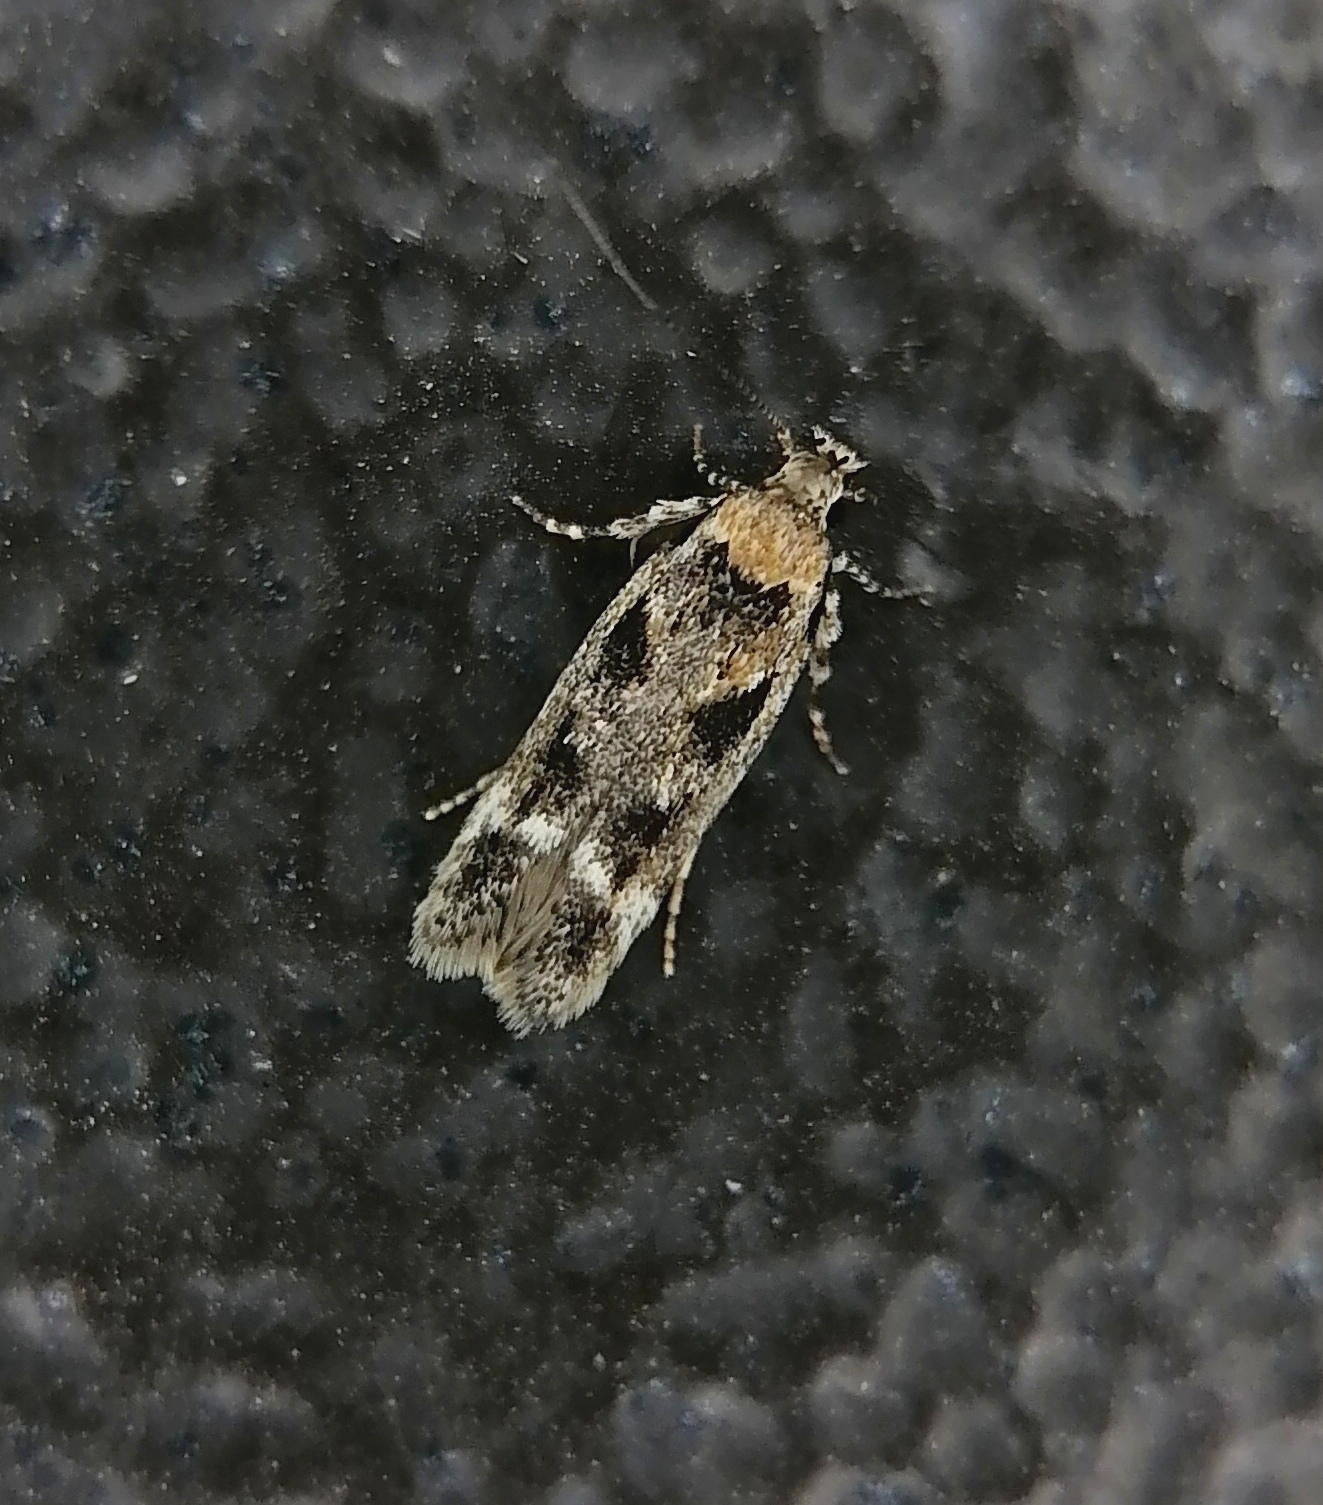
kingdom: Animalia
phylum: Arthropoda
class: Insecta
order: Lepidoptera
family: Gelechiidae
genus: Caryocolum
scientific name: Caryocolum fischerella
